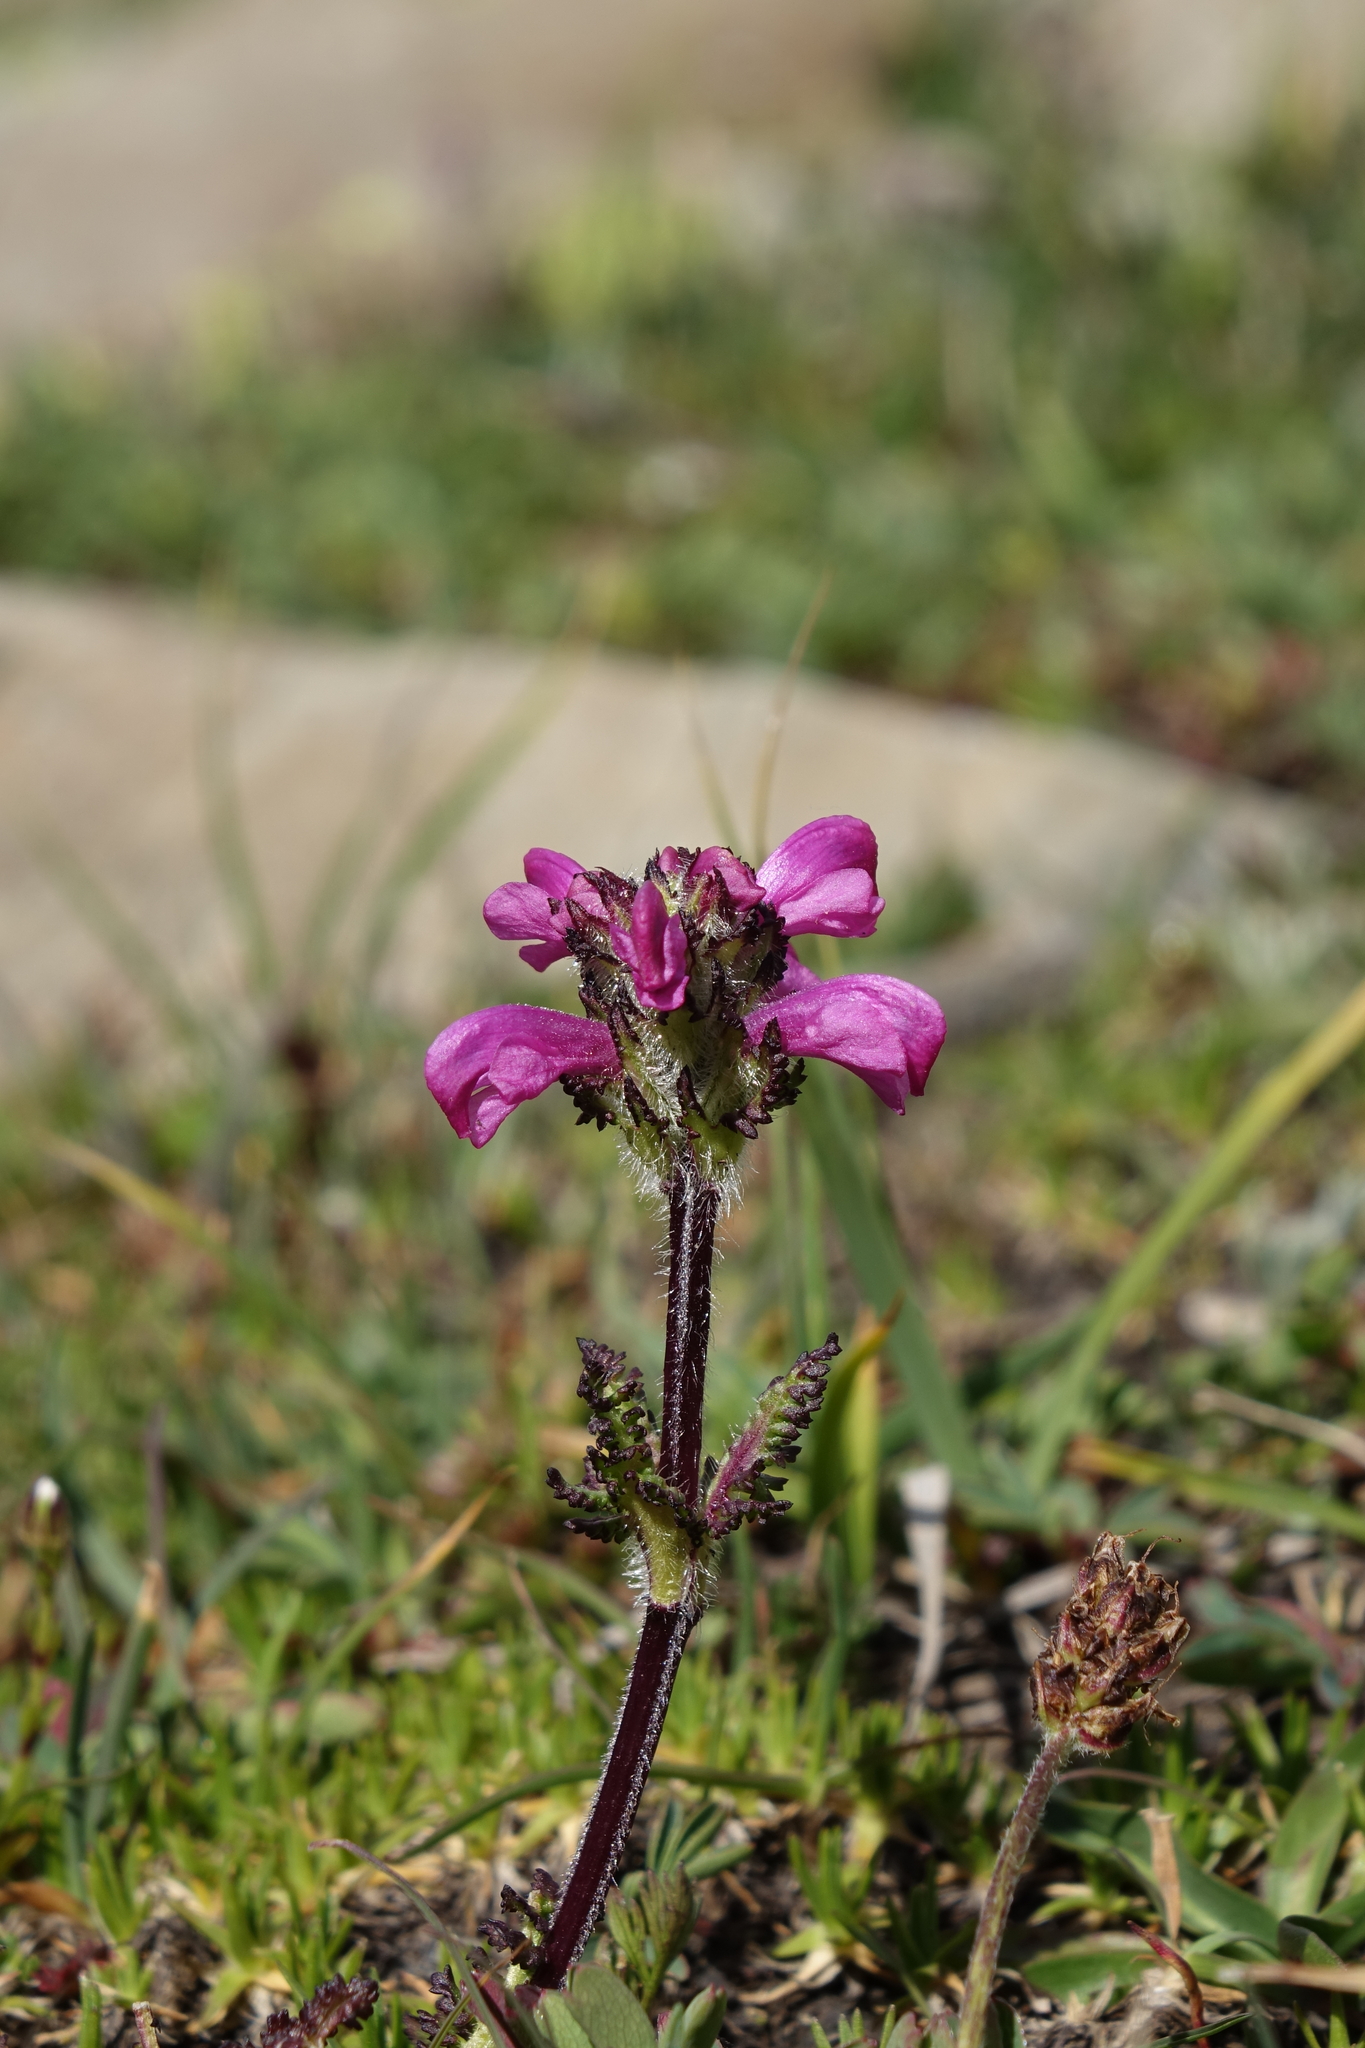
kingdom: Plantae
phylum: Tracheophyta
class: Magnoliopsida
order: Lamiales
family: Orobanchaceae
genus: Pedicularis
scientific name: Pedicularis crassirostris
